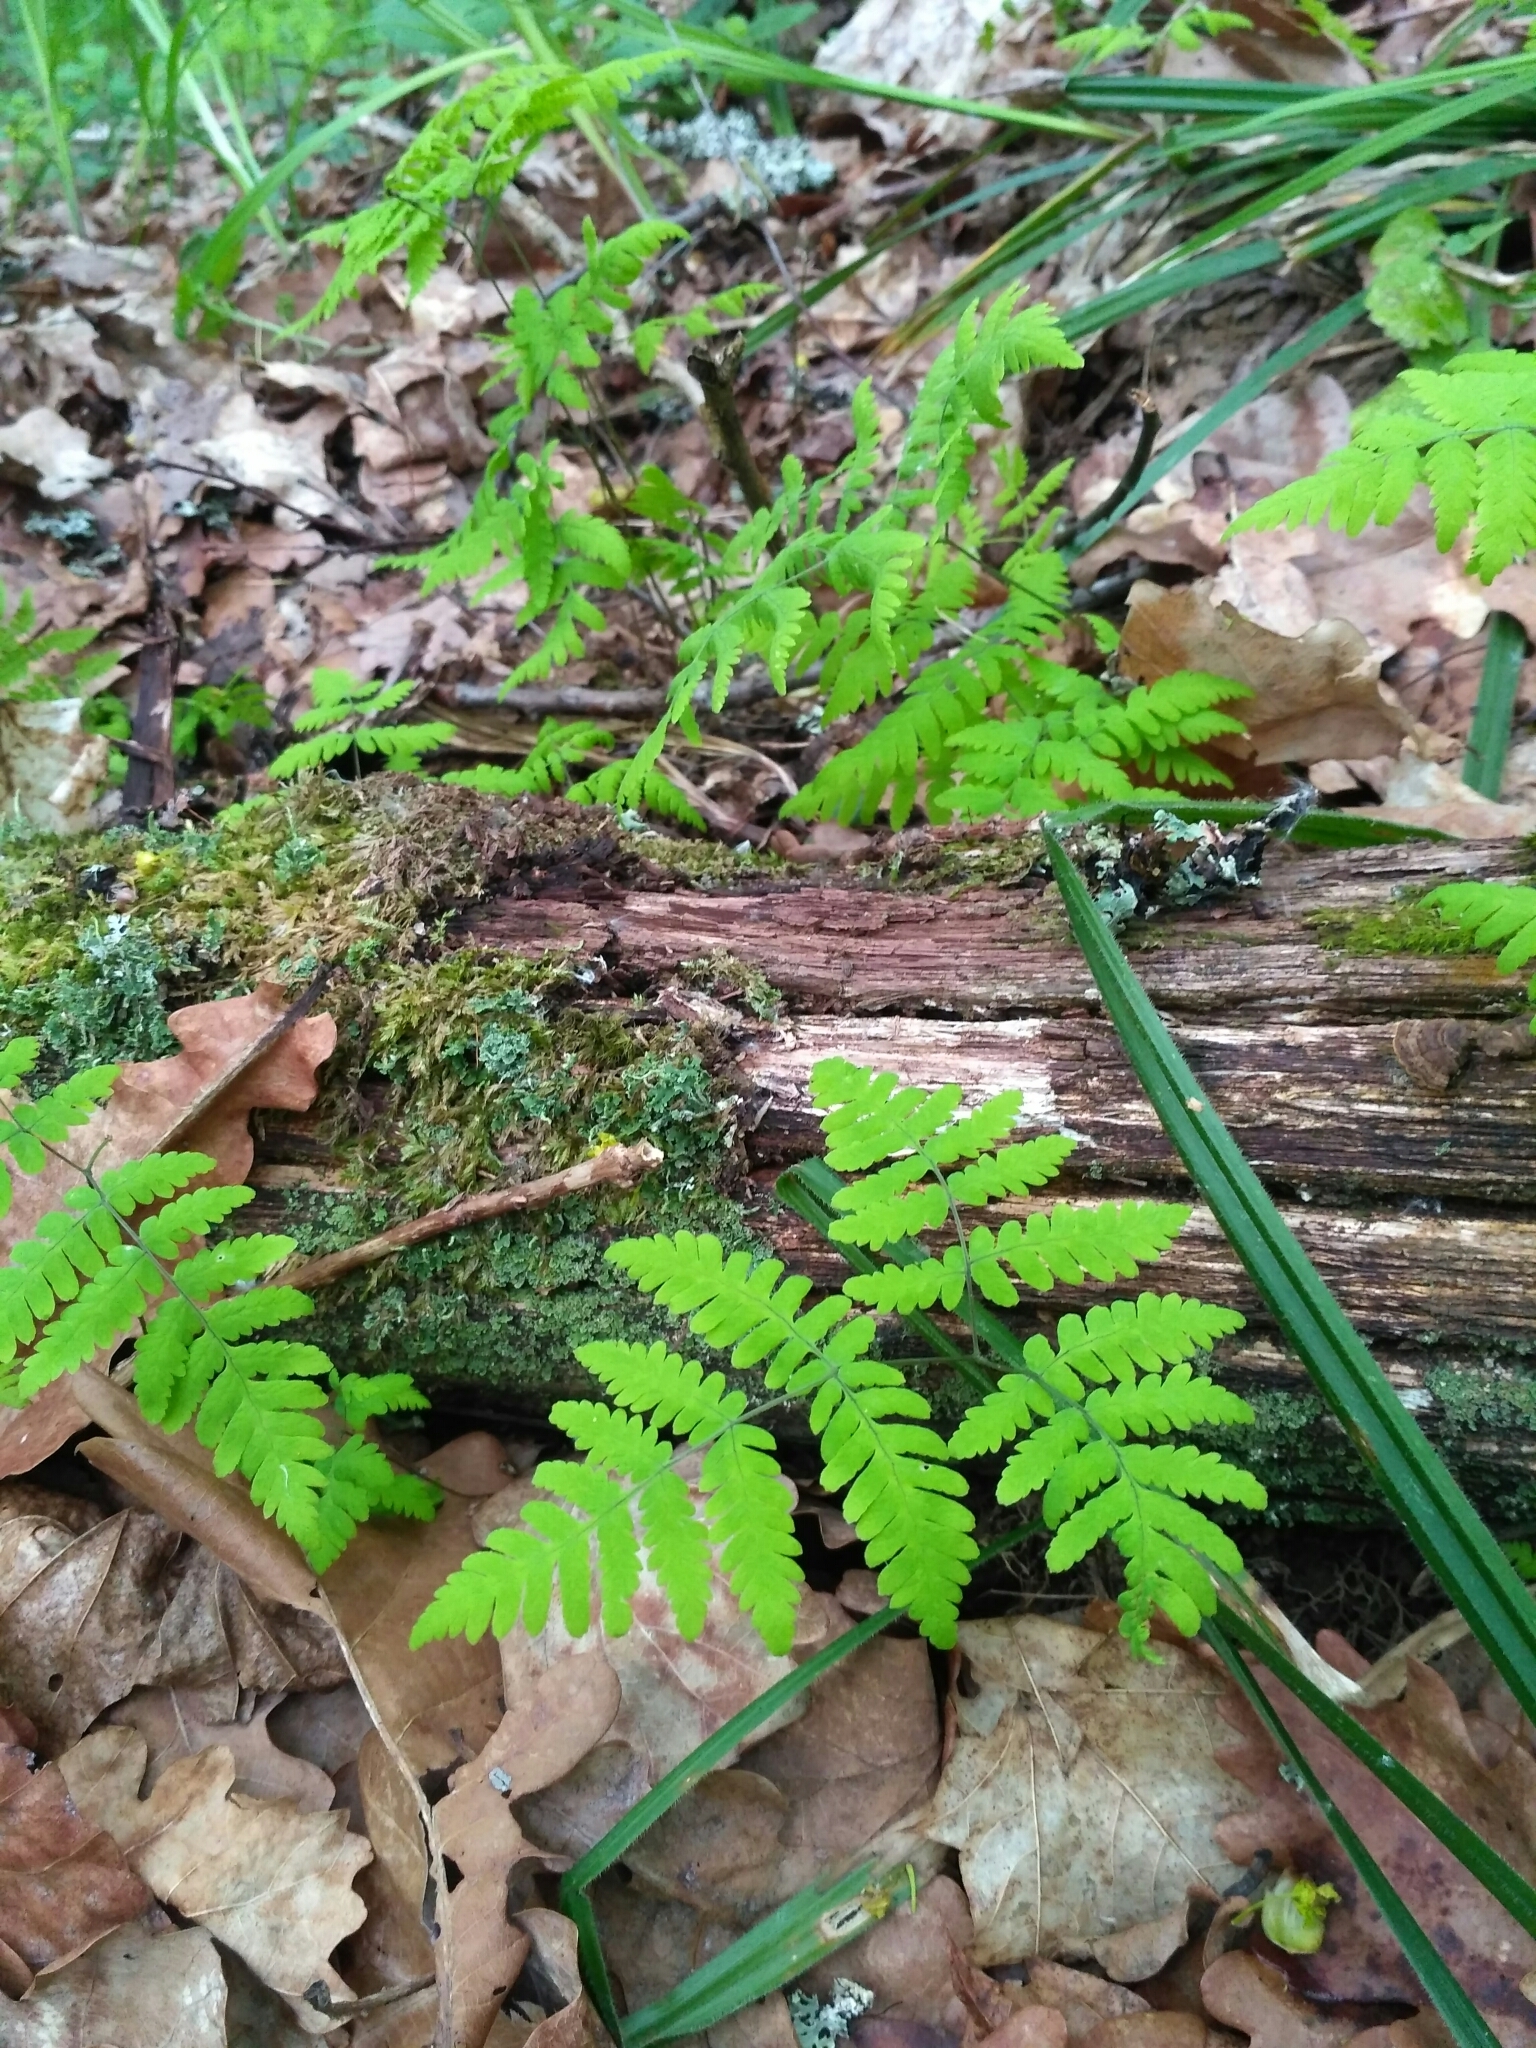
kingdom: Plantae
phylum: Tracheophyta
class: Polypodiopsida
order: Polypodiales
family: Cystopteridaceae
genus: Gymnocarpium
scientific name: Gymnocarpium dryopteris
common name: Oak fern
